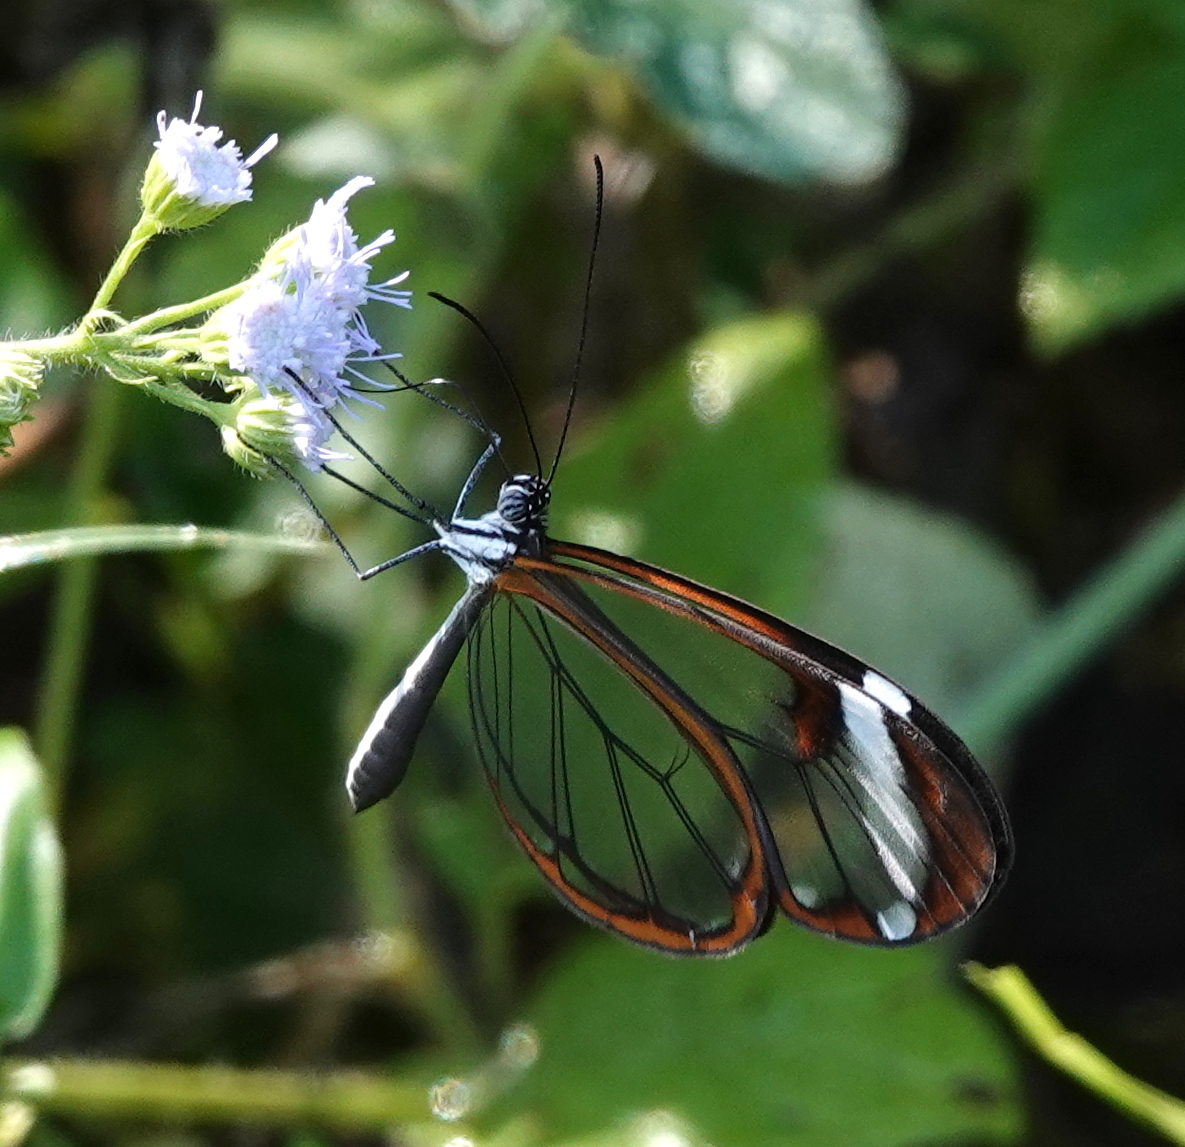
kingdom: Animalia
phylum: Arthropoda
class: Insecta
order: Lepidoptera
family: Nymphalidae
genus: Greta
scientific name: Greta morgane
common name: Thick-tipped greta
